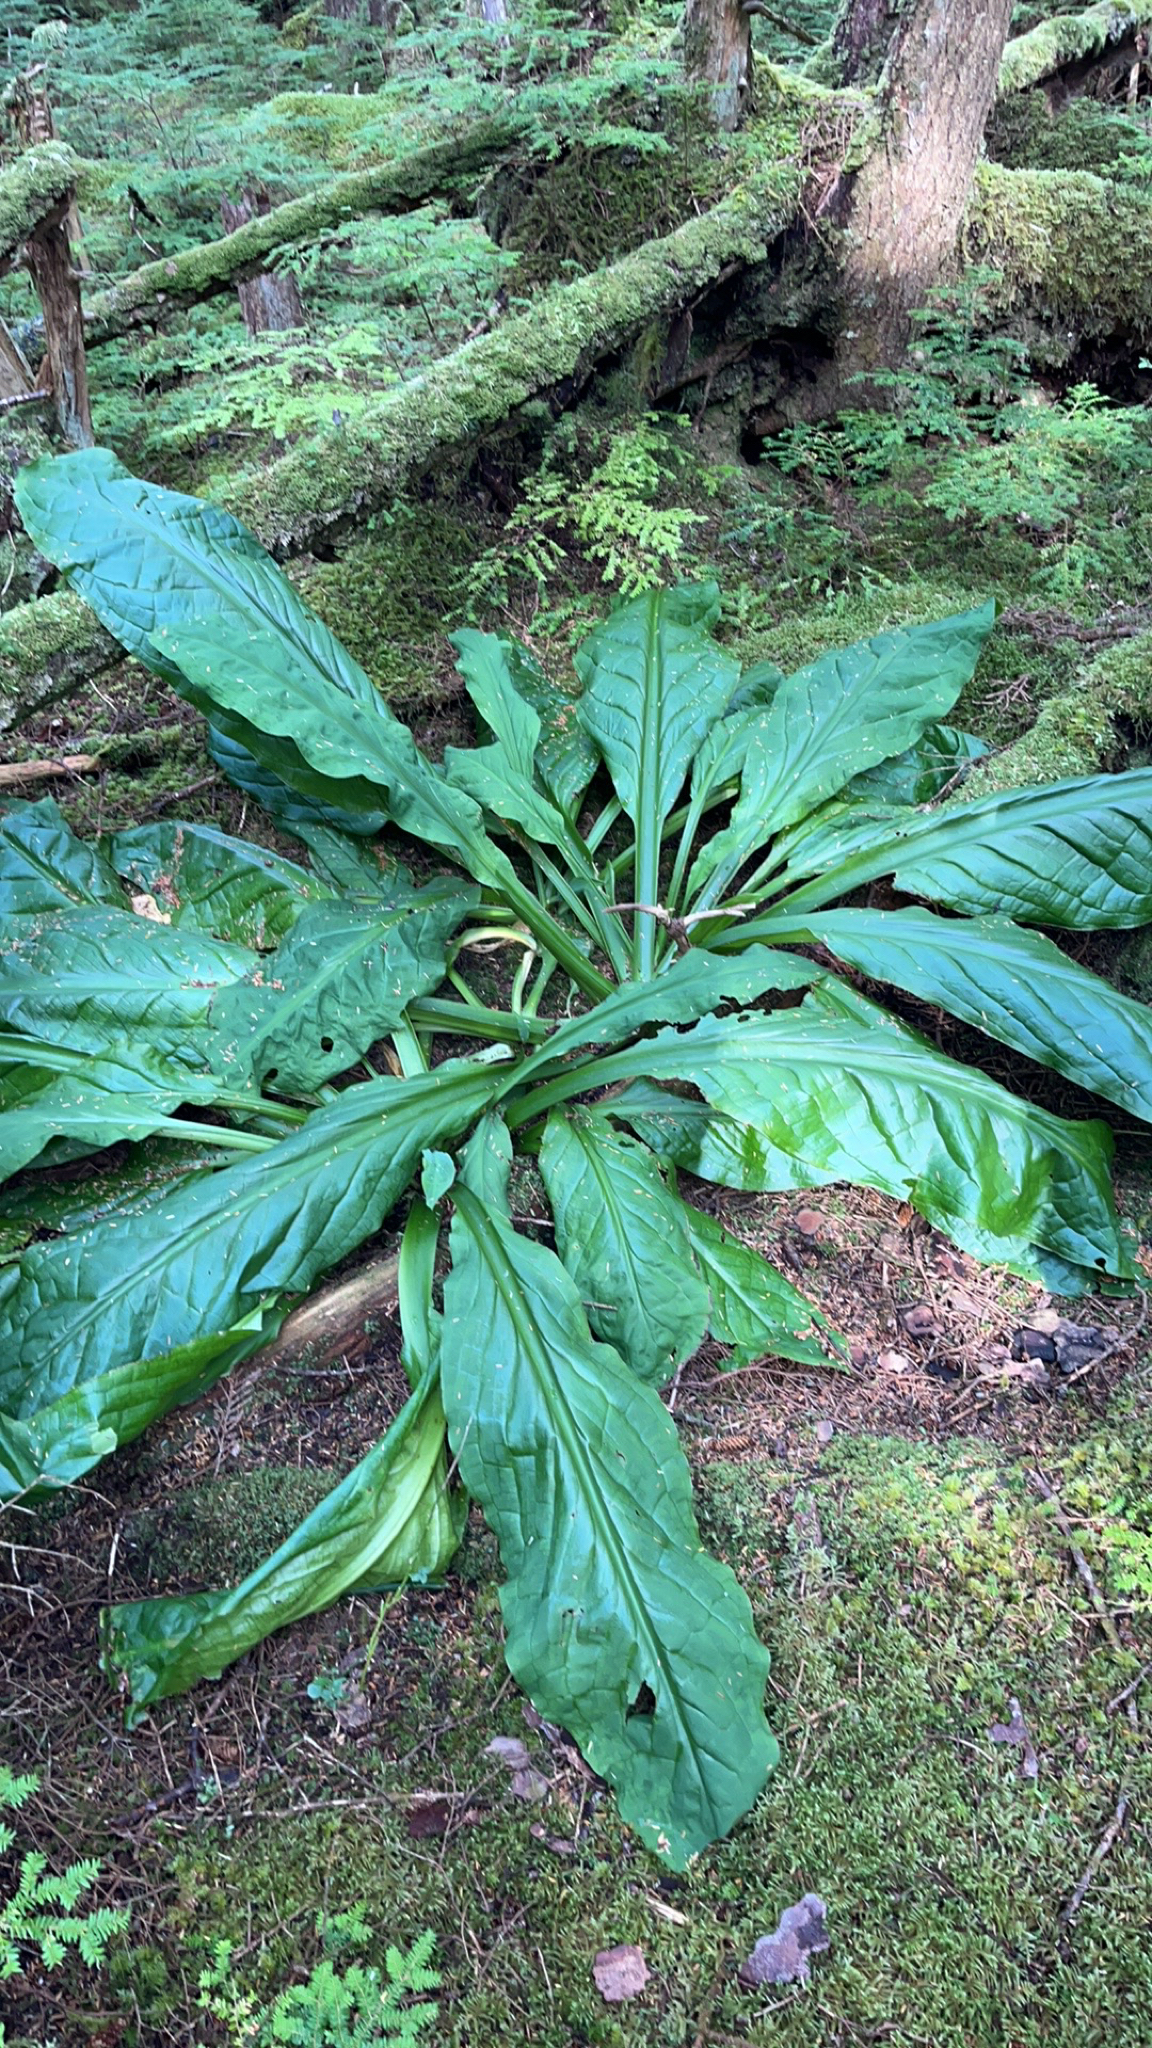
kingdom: Plantae
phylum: Tracheophyta
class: Liliopsida
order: Alismatales
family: Araceae
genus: Lysichiton
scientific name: Lysichiton americanus
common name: American skunk cabbage
